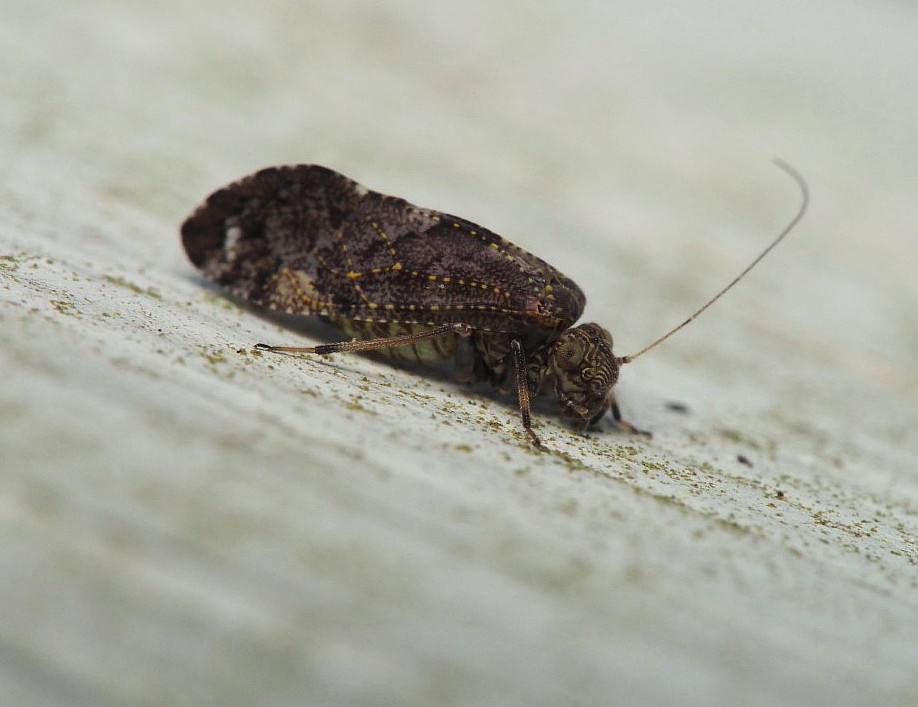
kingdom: Animalia
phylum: Arthropoda
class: Insecta
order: Psocodea
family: Myopsocidae
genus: Nimbopsocus
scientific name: Nimbopsocus australis
